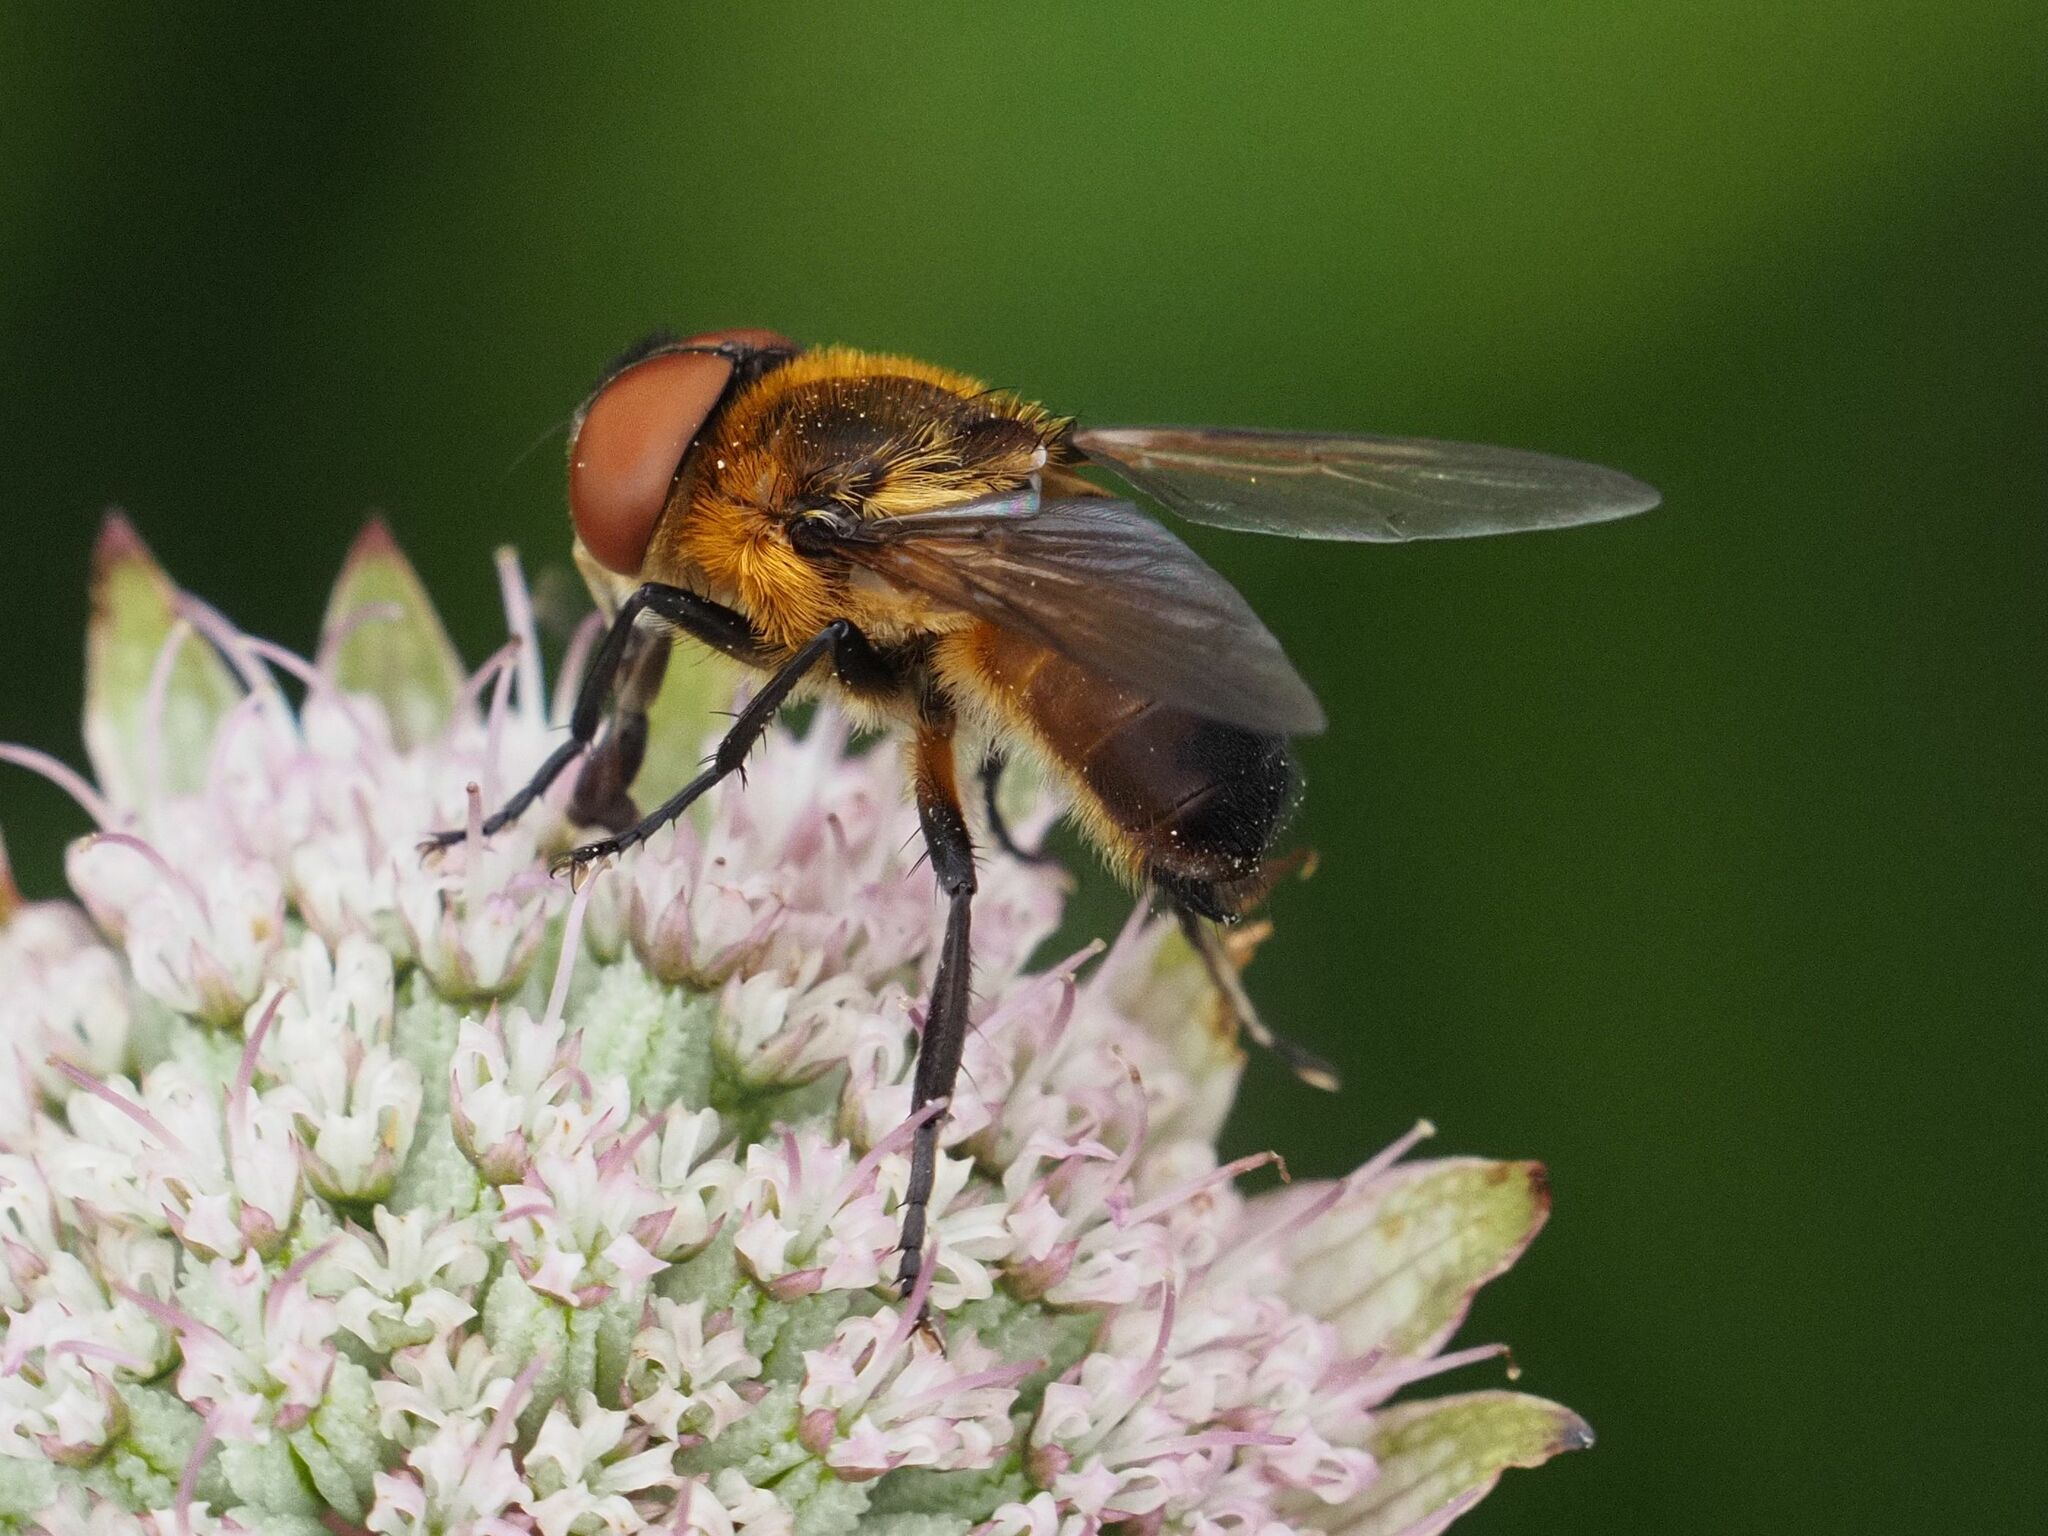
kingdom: Animalia
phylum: Arthropoda
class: Insecta
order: Diptera
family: Tachinidae
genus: Phasia
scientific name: Phasia hemiptera
